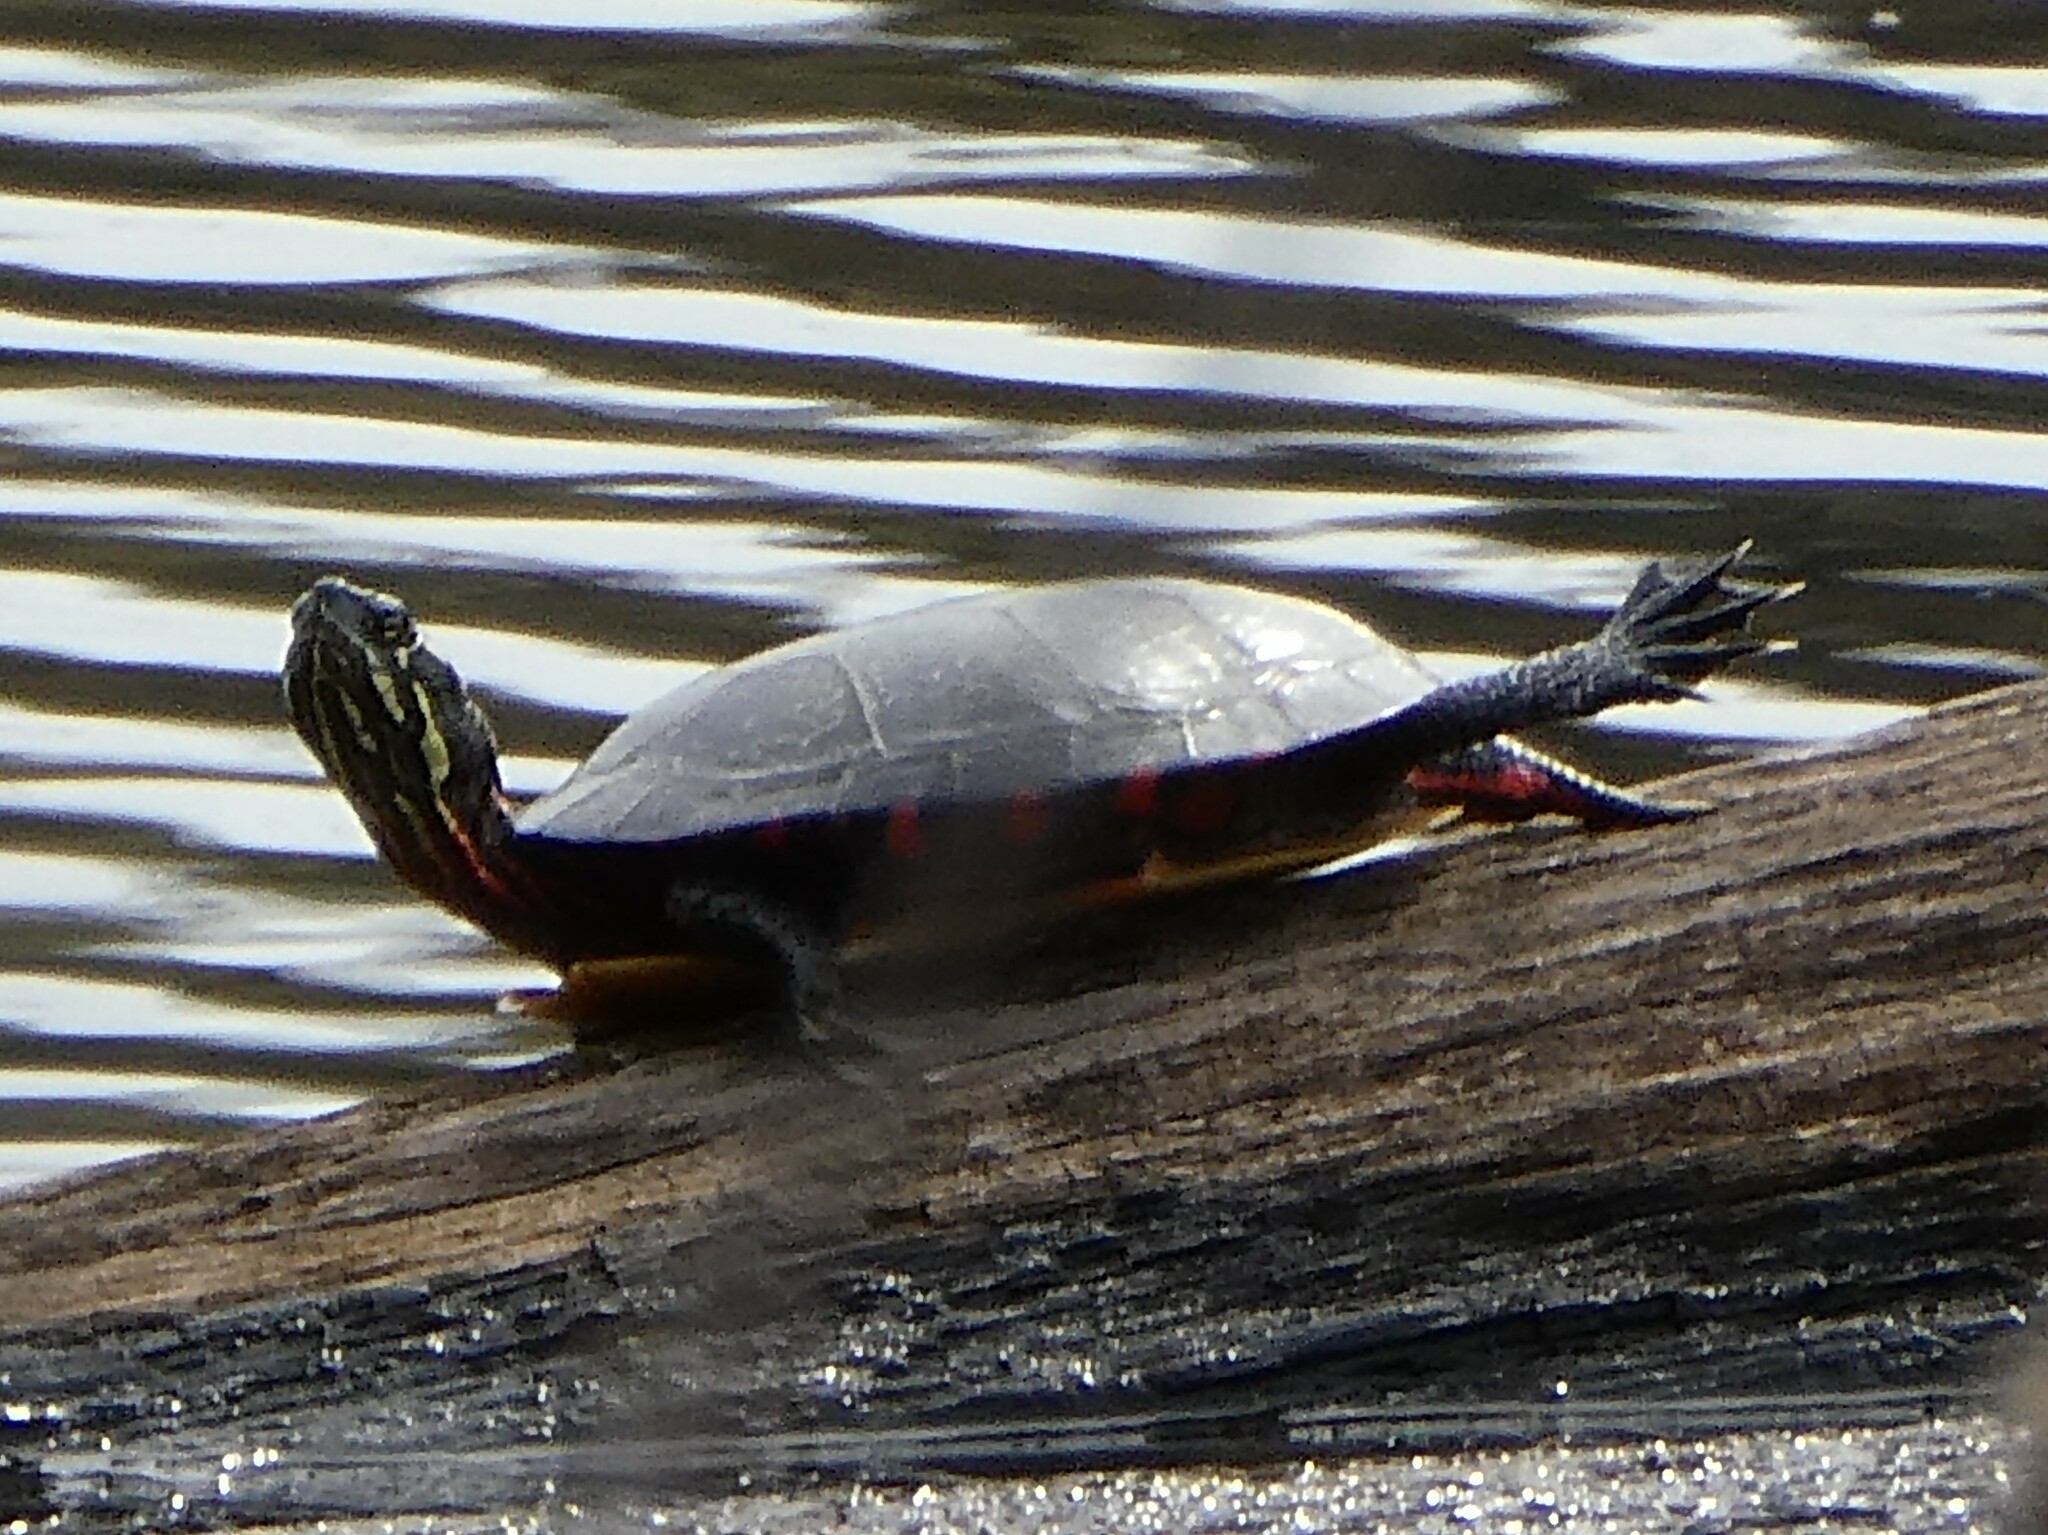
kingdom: Animalia
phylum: Chordata
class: Testudines
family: Emydidae
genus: Chrysemys
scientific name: Chrysemys picta
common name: Painted turtle
